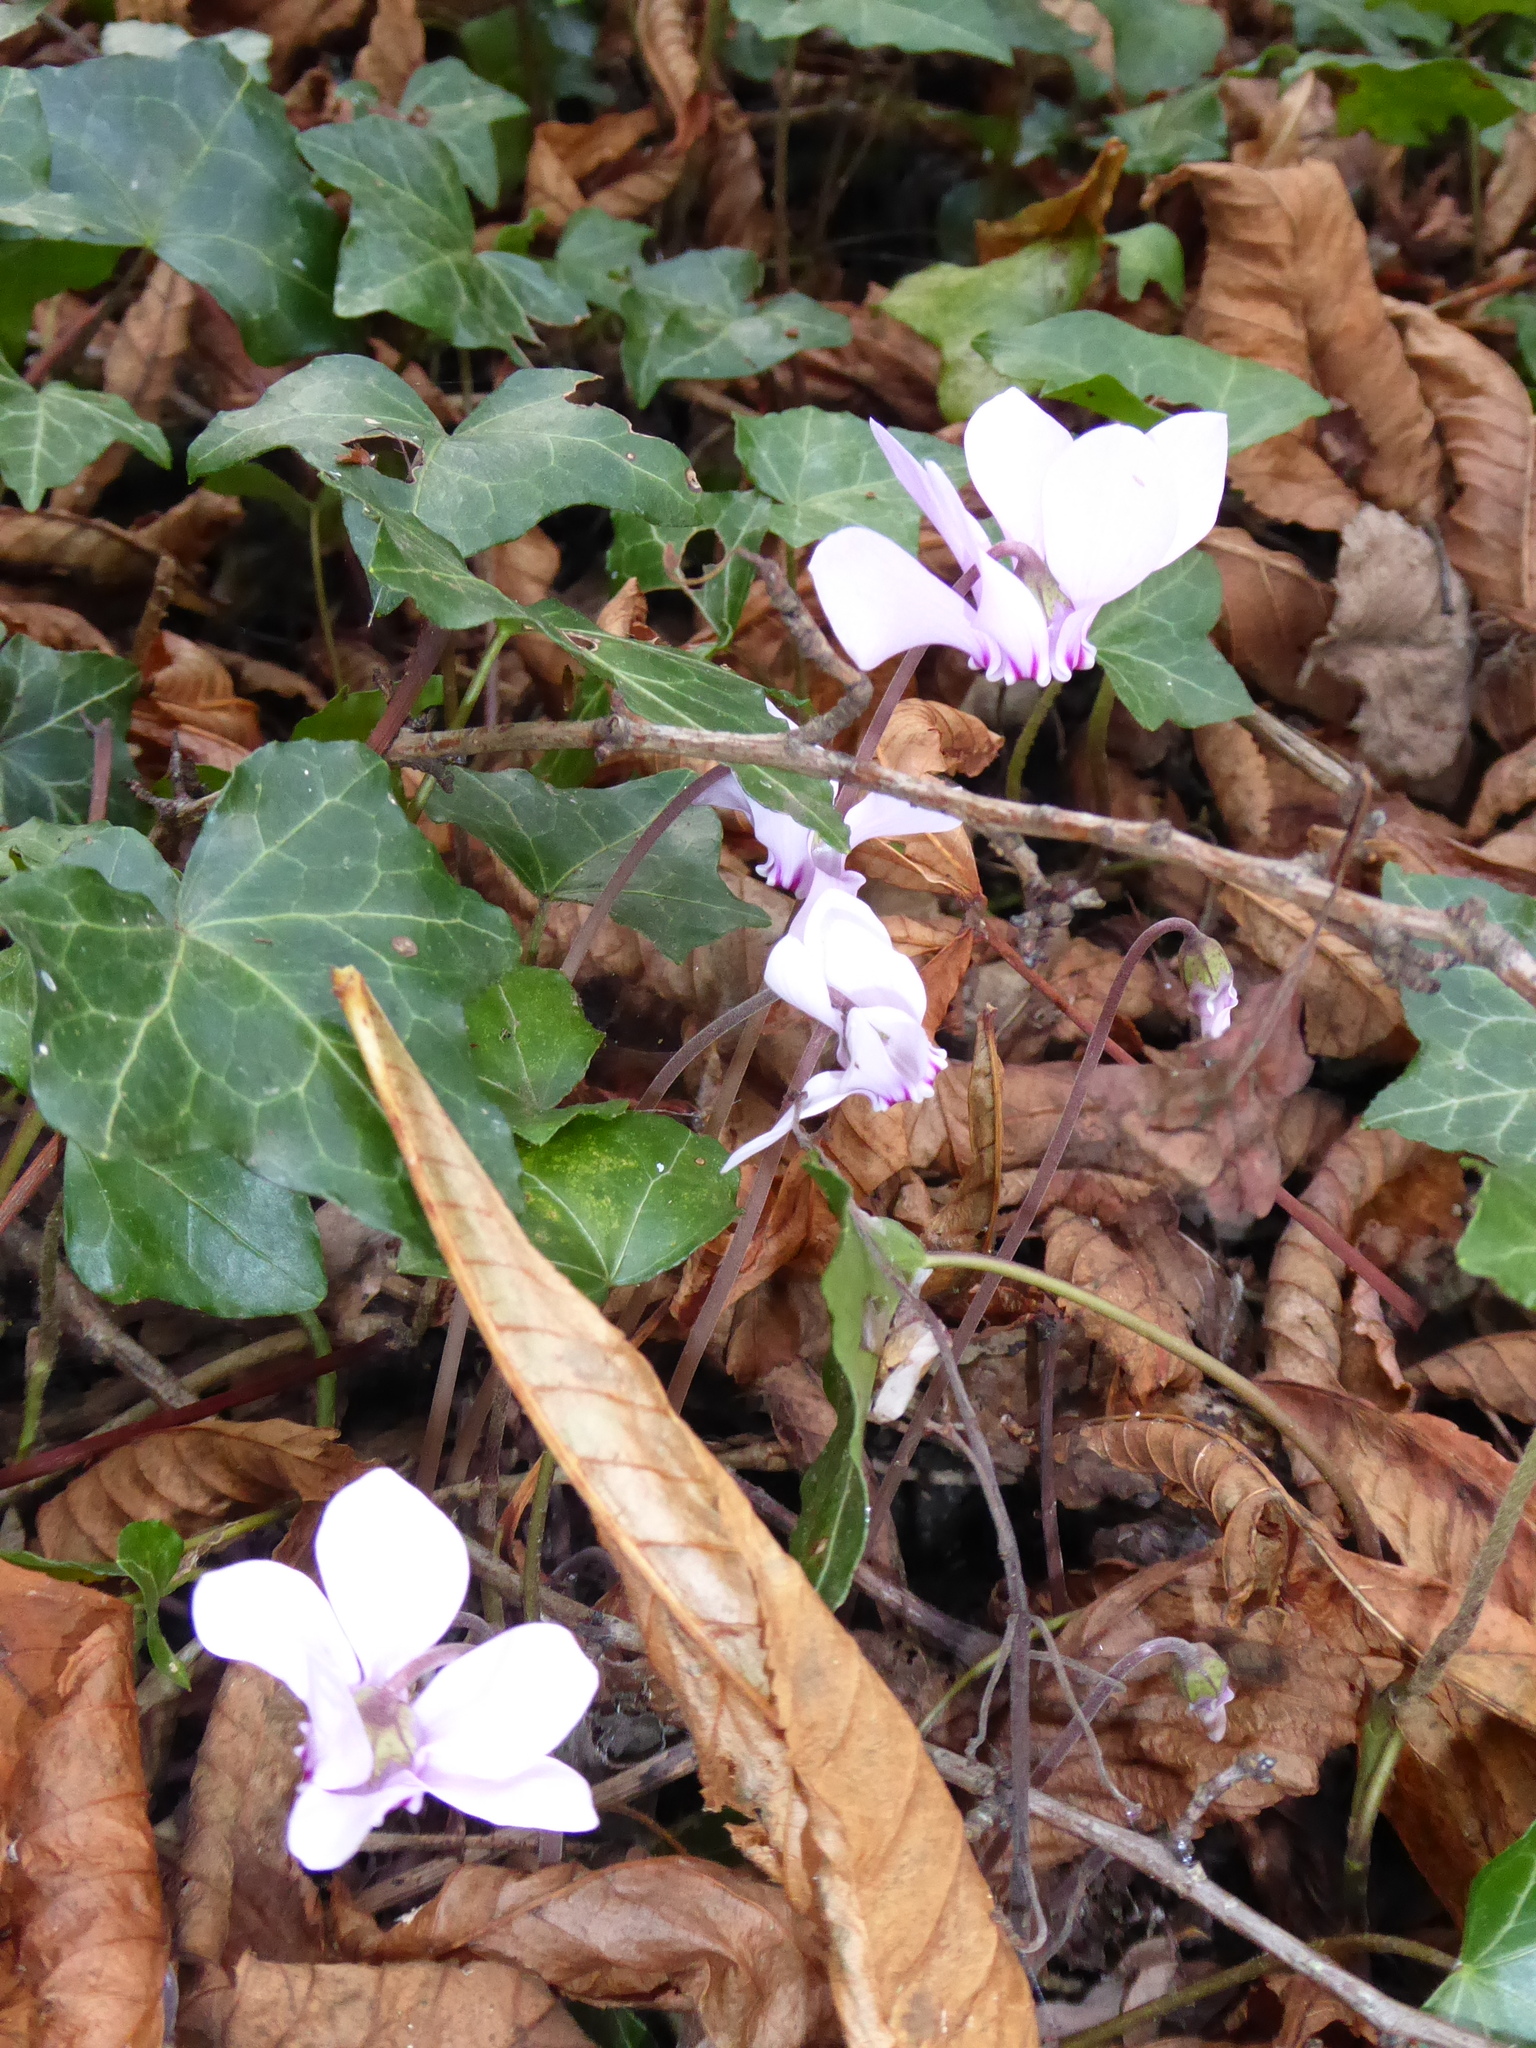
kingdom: Plantae
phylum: Tracheophyta
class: Magnoliopsida
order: Ericales
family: Primulaceae
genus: Cyclamen
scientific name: Cyclamen hederifolium
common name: Sowbread
